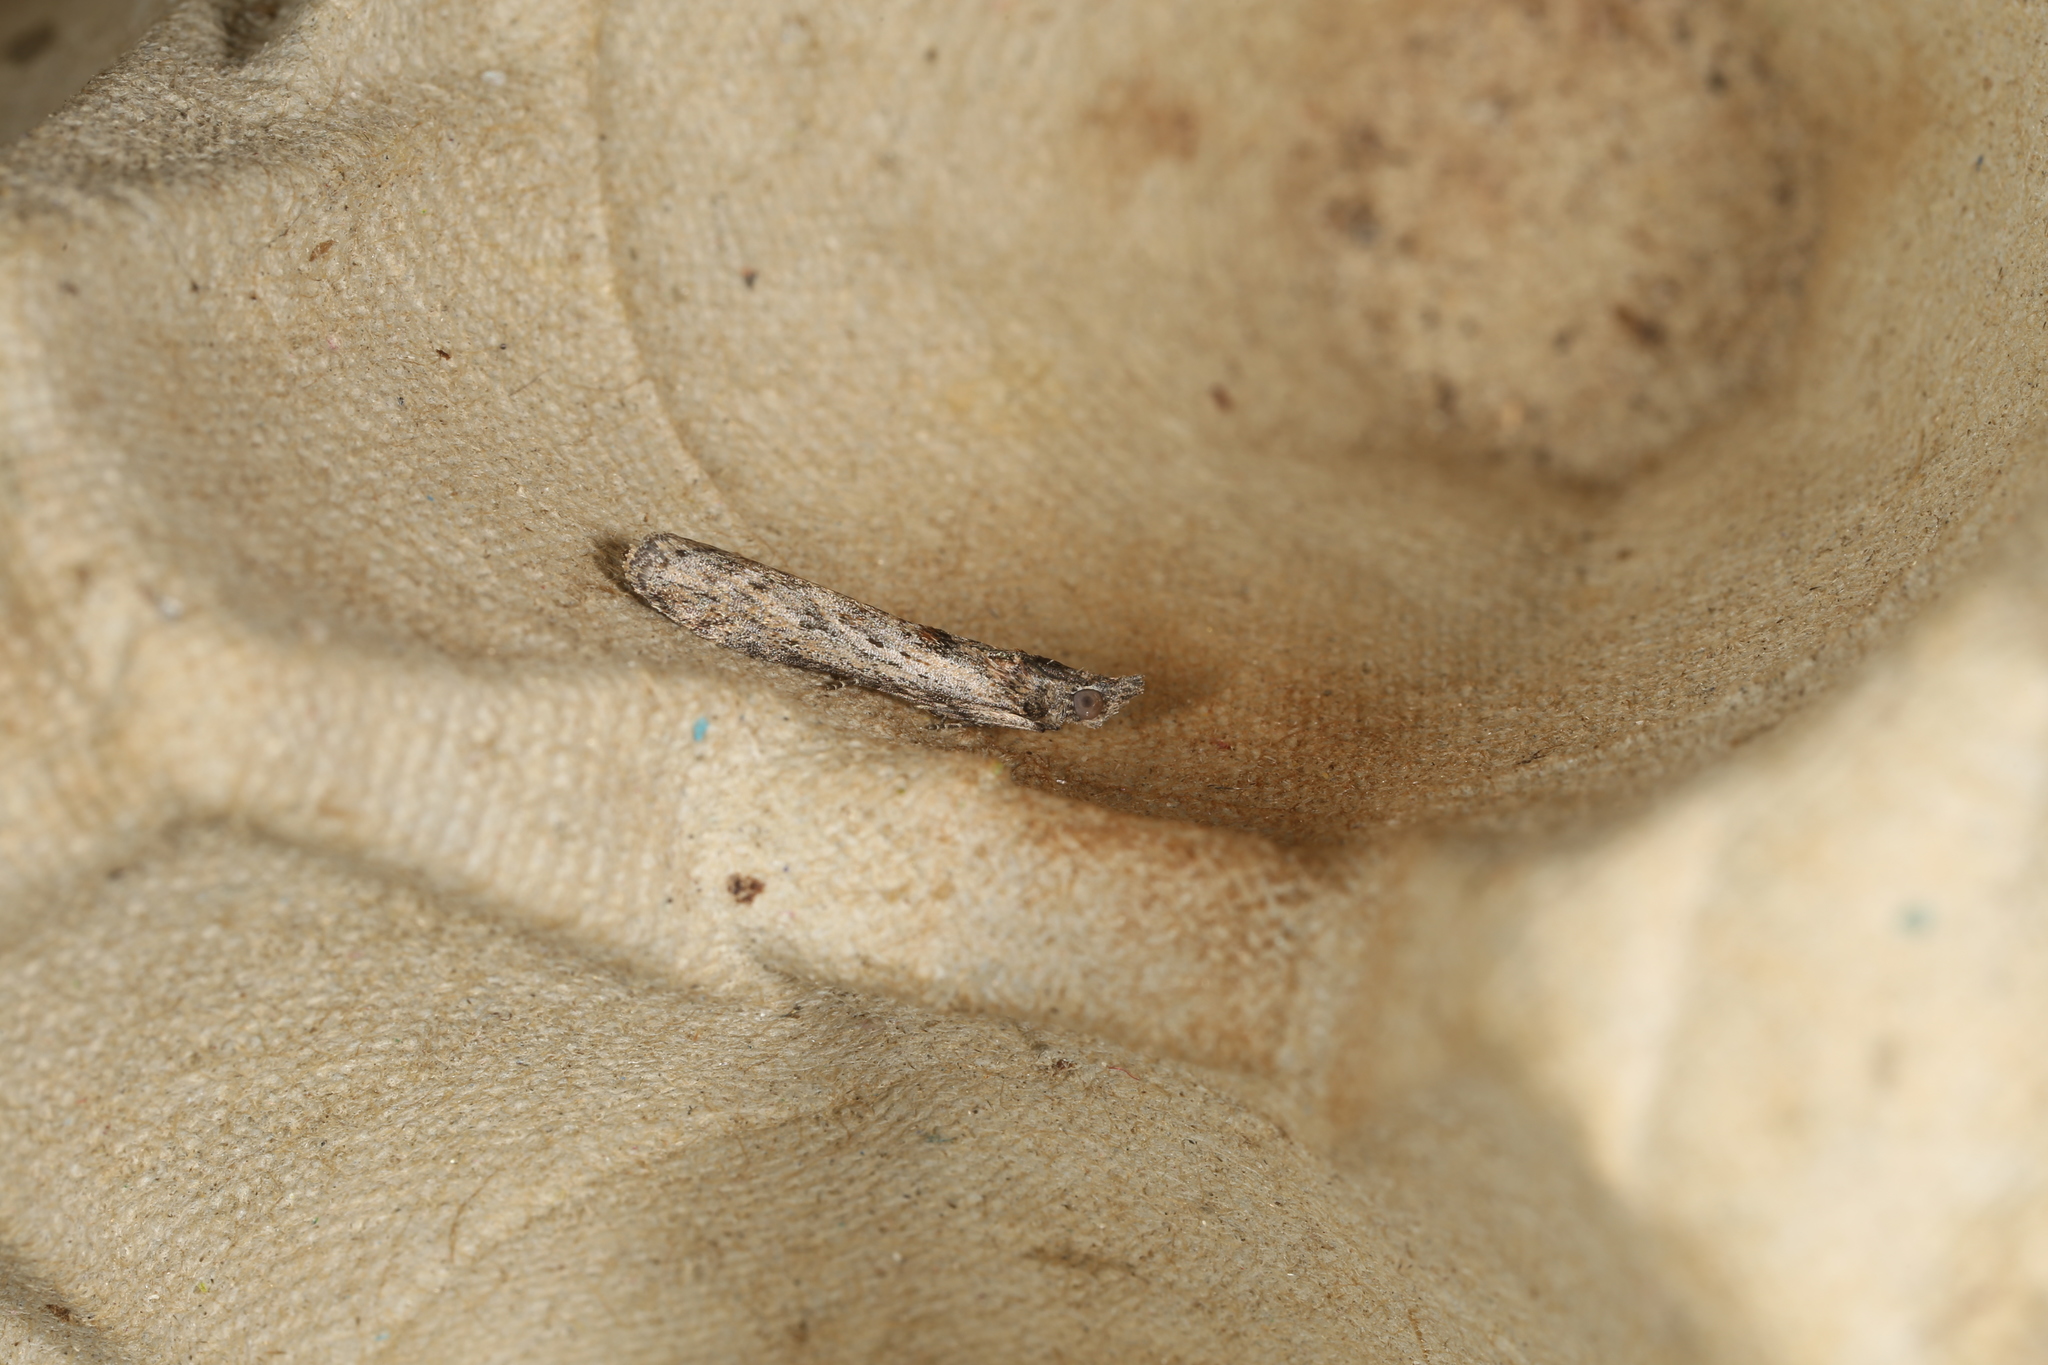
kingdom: Animalia
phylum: Arthropoda
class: Insecta
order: Lepidoptera
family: Pyralidae
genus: Crocydopora
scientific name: Crocydopora cinigerella
